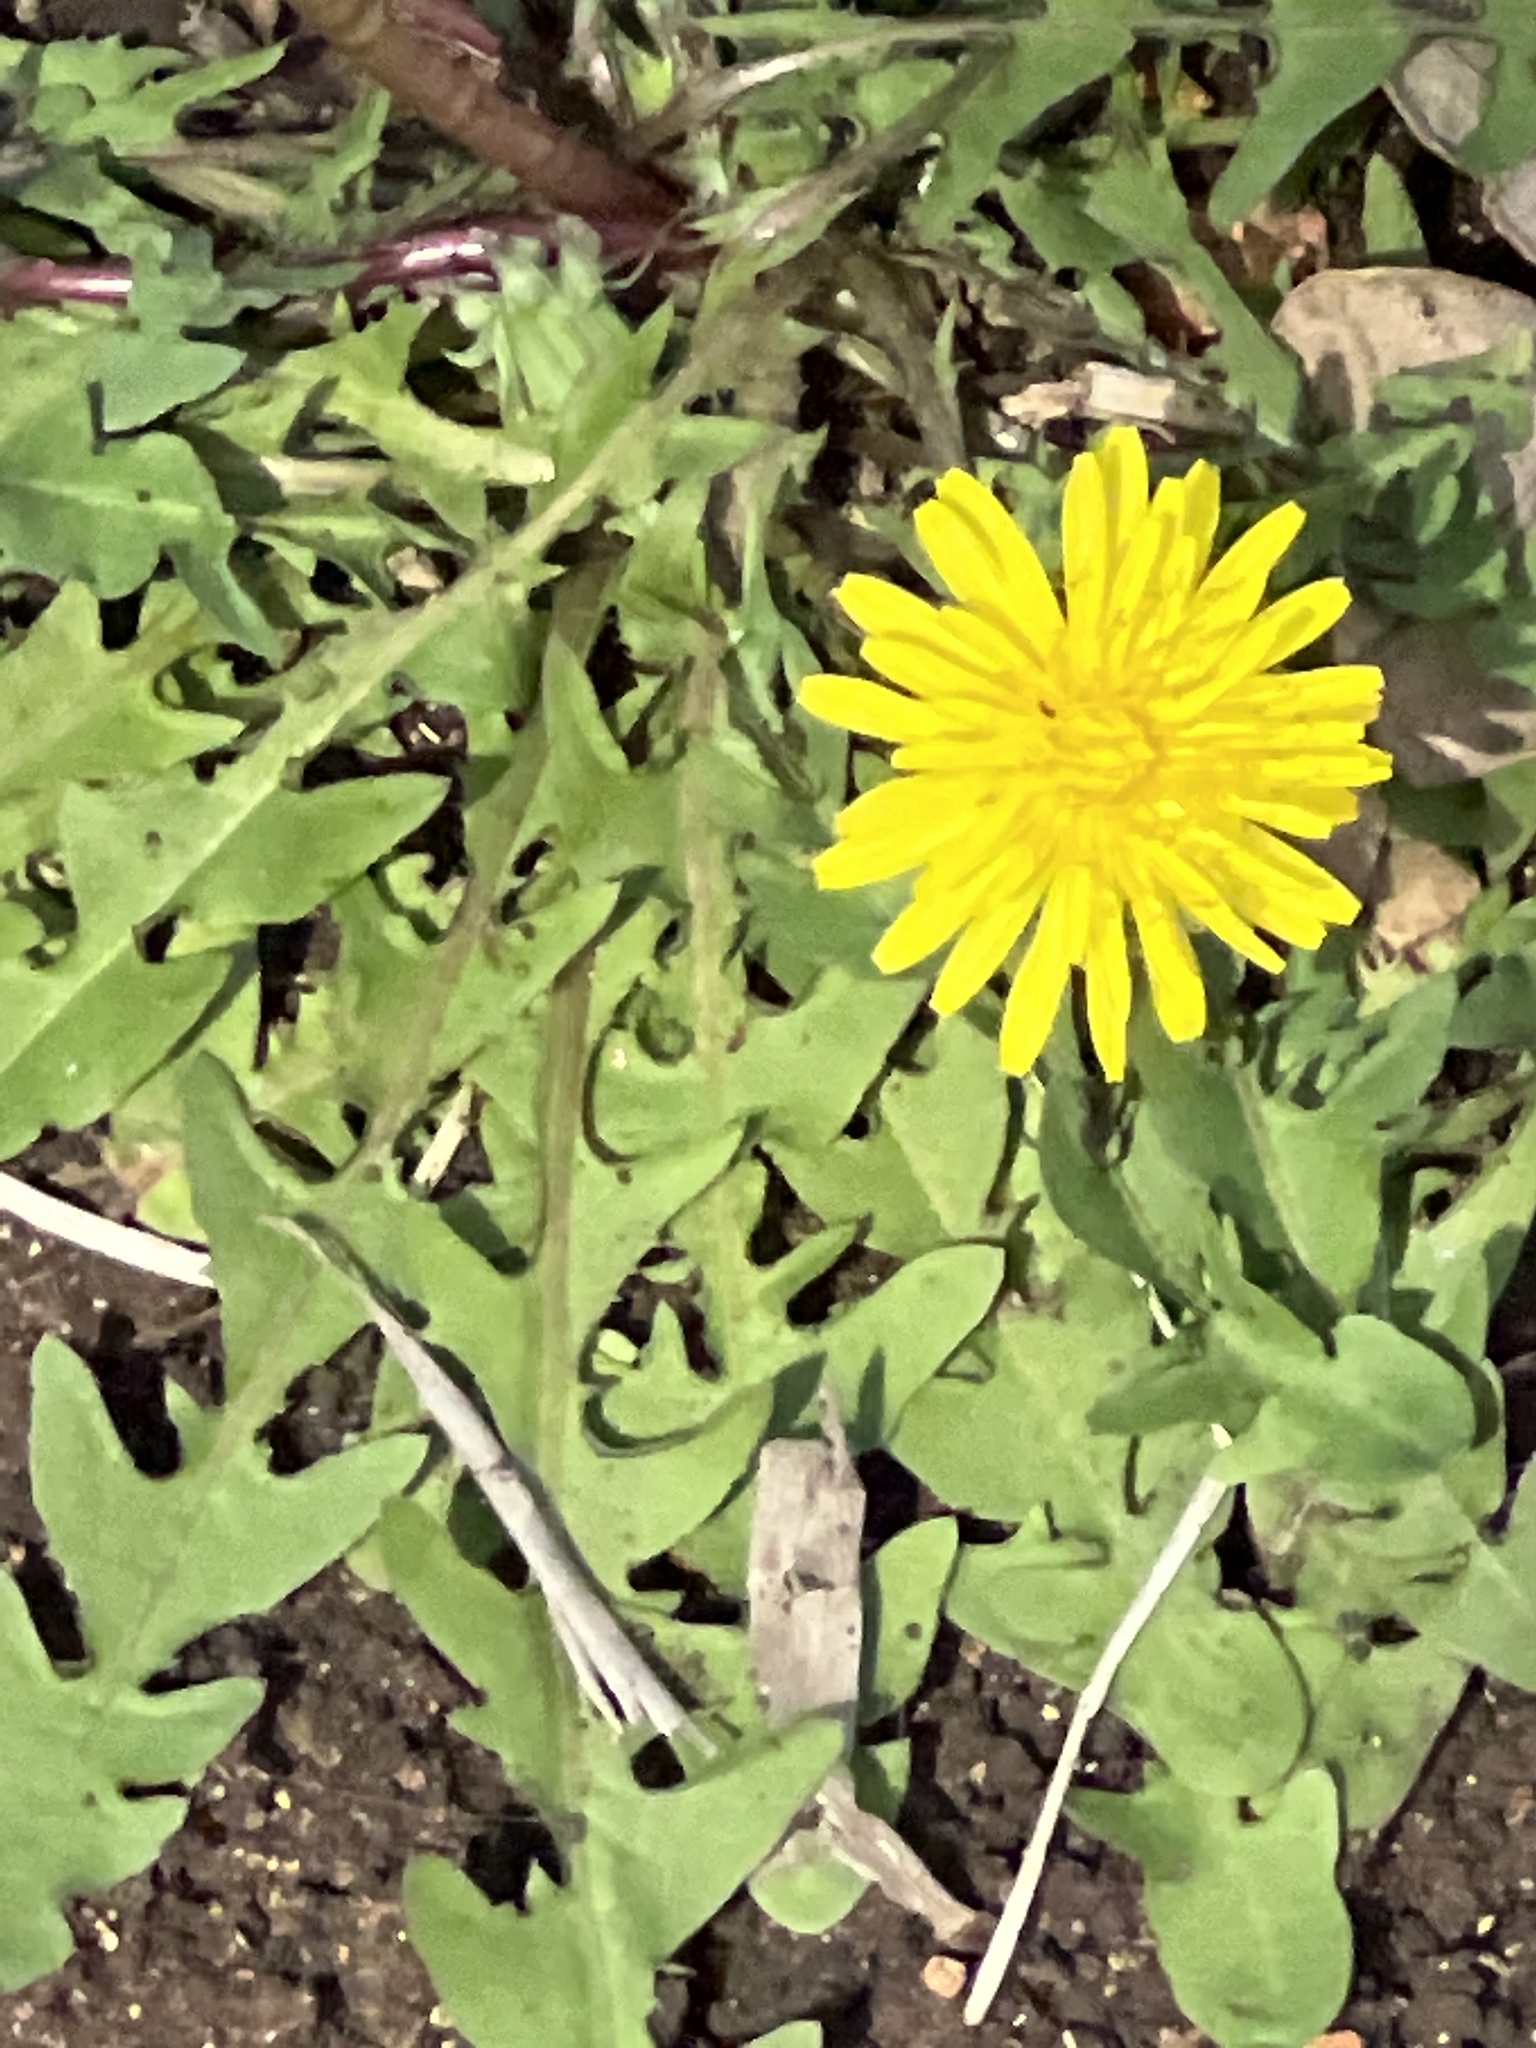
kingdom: Plantae
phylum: Tracheophyta
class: Magnoliopsida
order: Asterales
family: Asteraceae
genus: Taraxacum
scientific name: Taraxacum officinale
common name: Common dandelion
